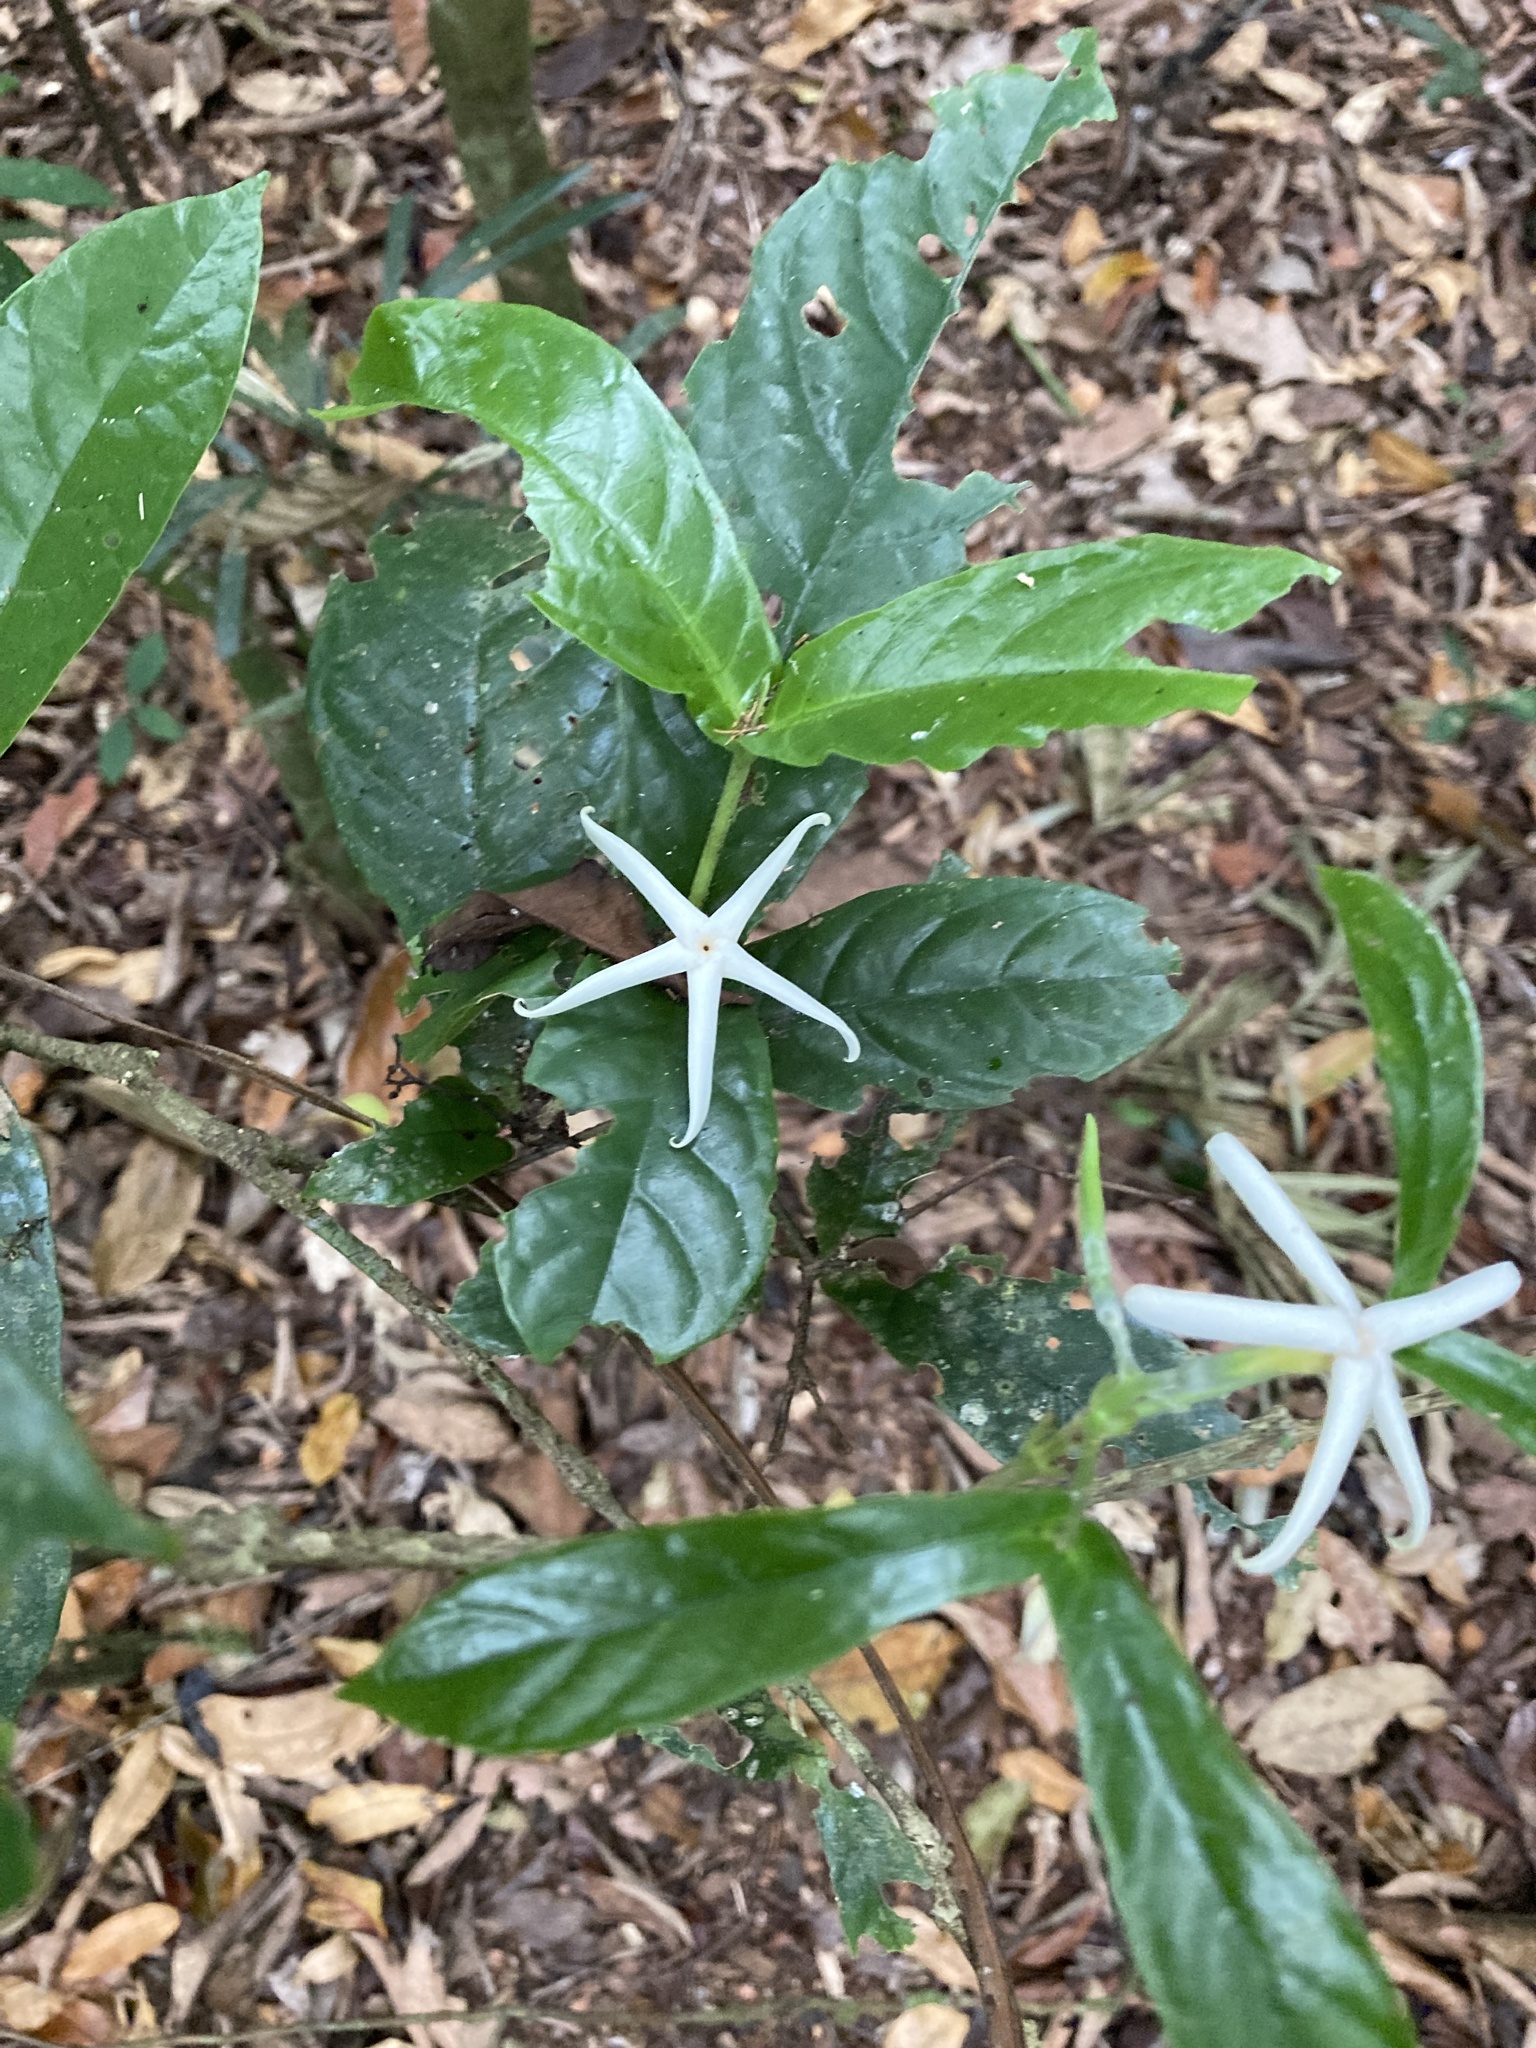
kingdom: Plantae
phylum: Tracheophyta
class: Magnoliopsida
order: Gentianales
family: Rubiaceae
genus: Atractocarpus
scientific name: Atractocarpus merikin
